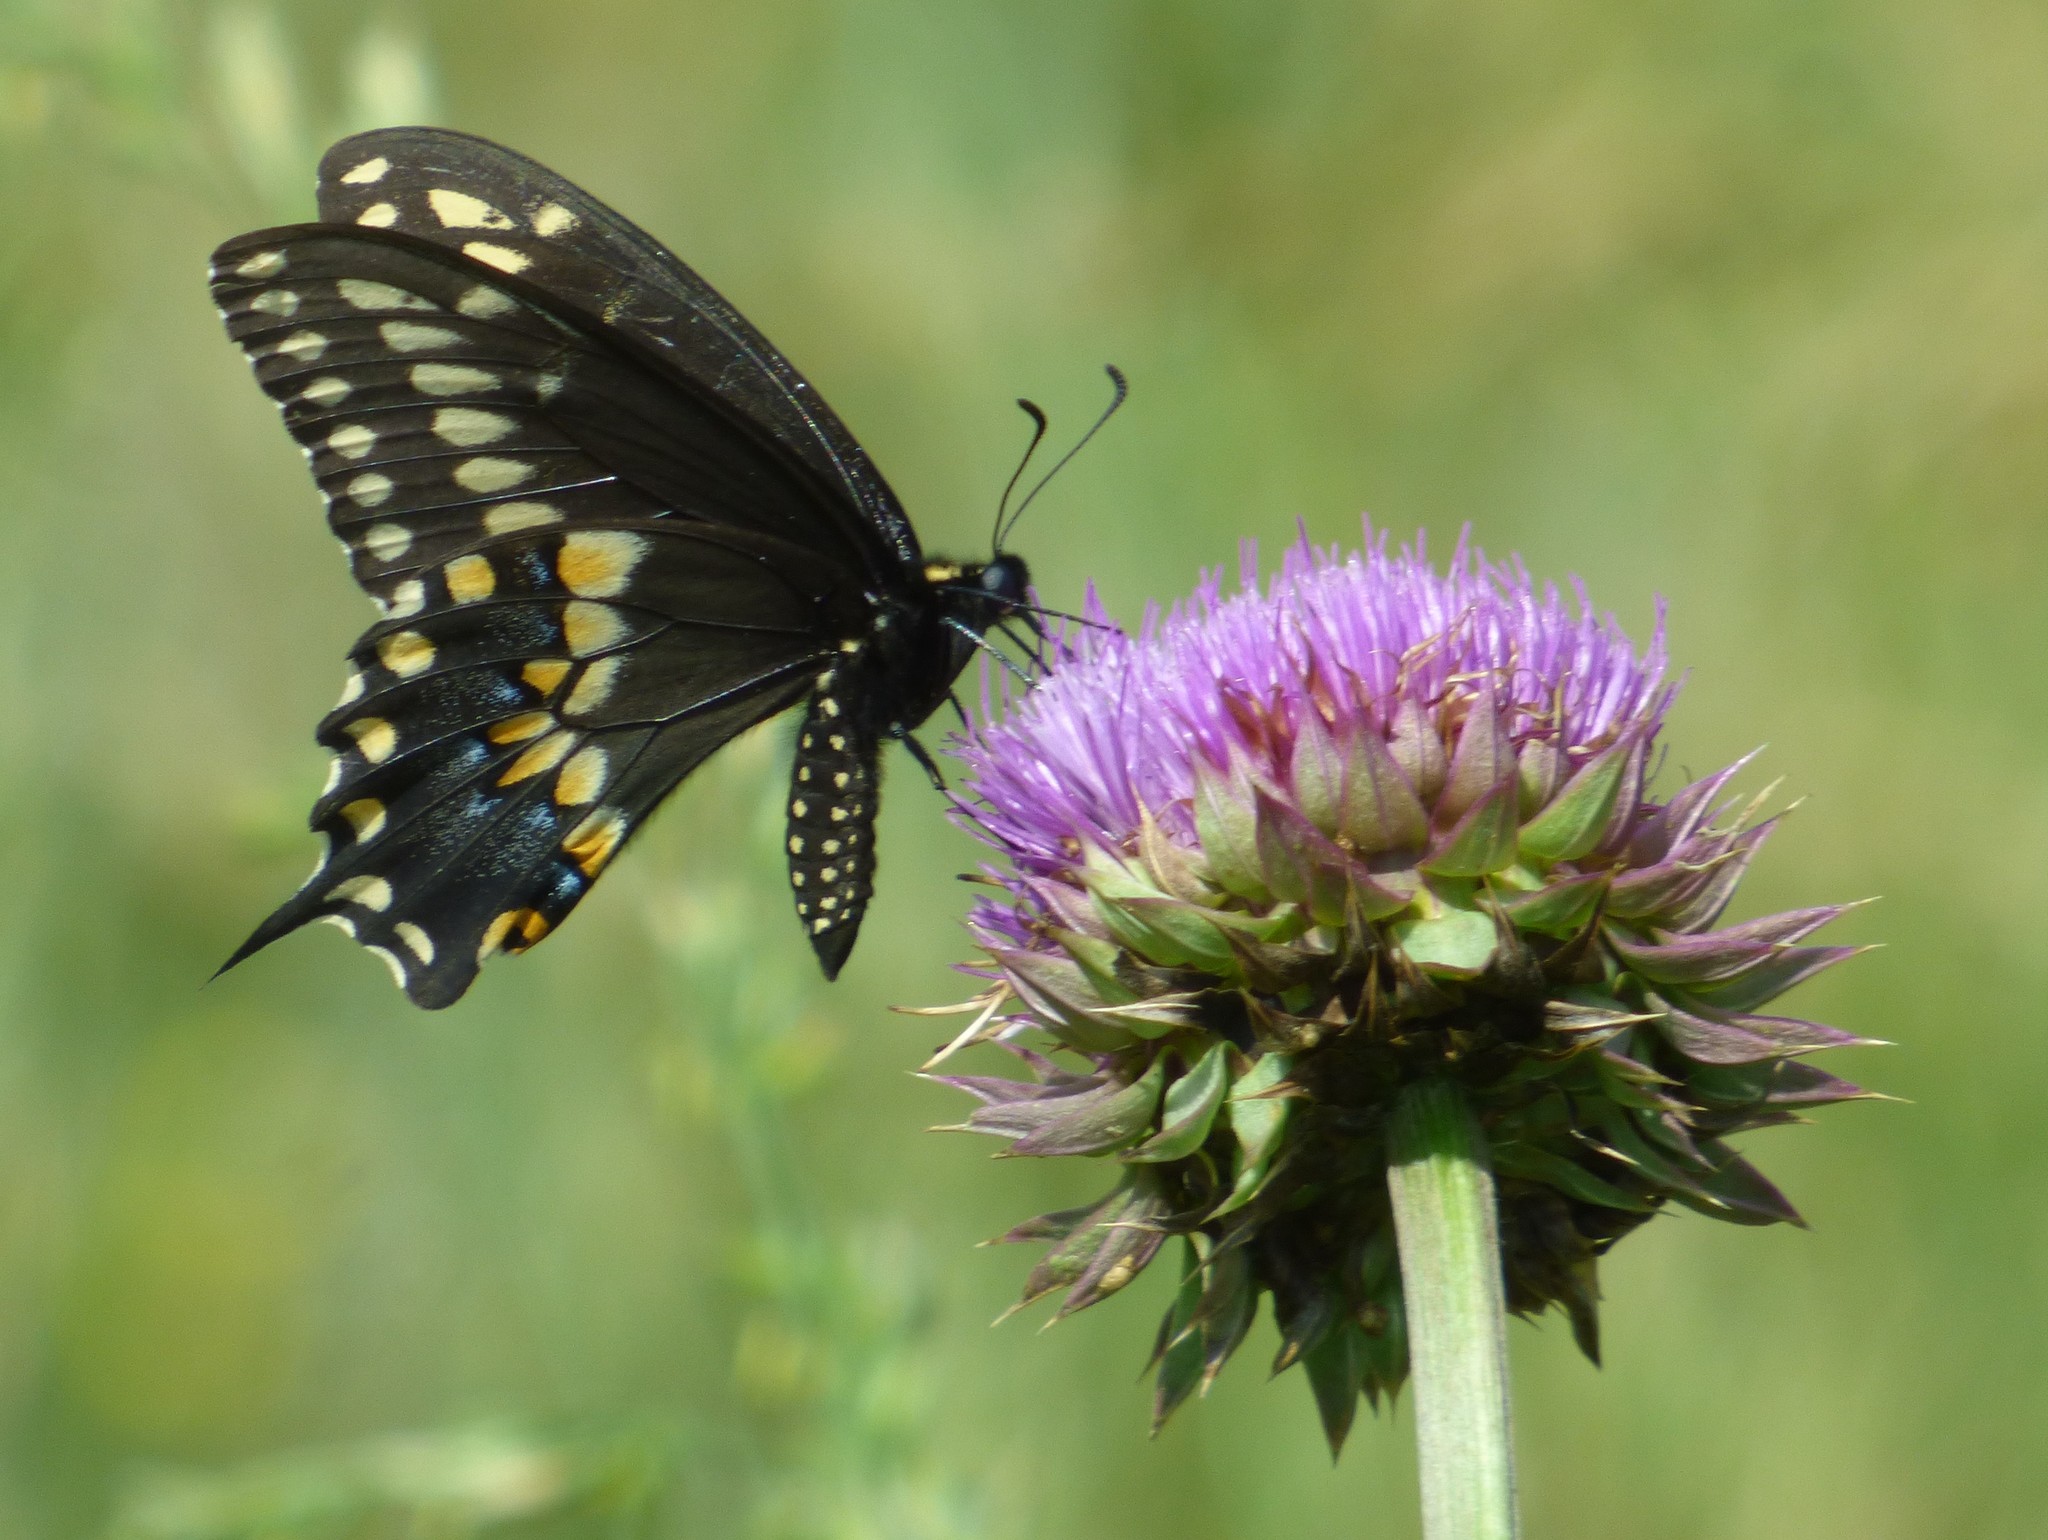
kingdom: Animalia
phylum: Arthropoda
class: Insecta
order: Lepidoptera
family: Papilionidae
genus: Papilio
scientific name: Papilio polyxenes
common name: Black swallowtail
